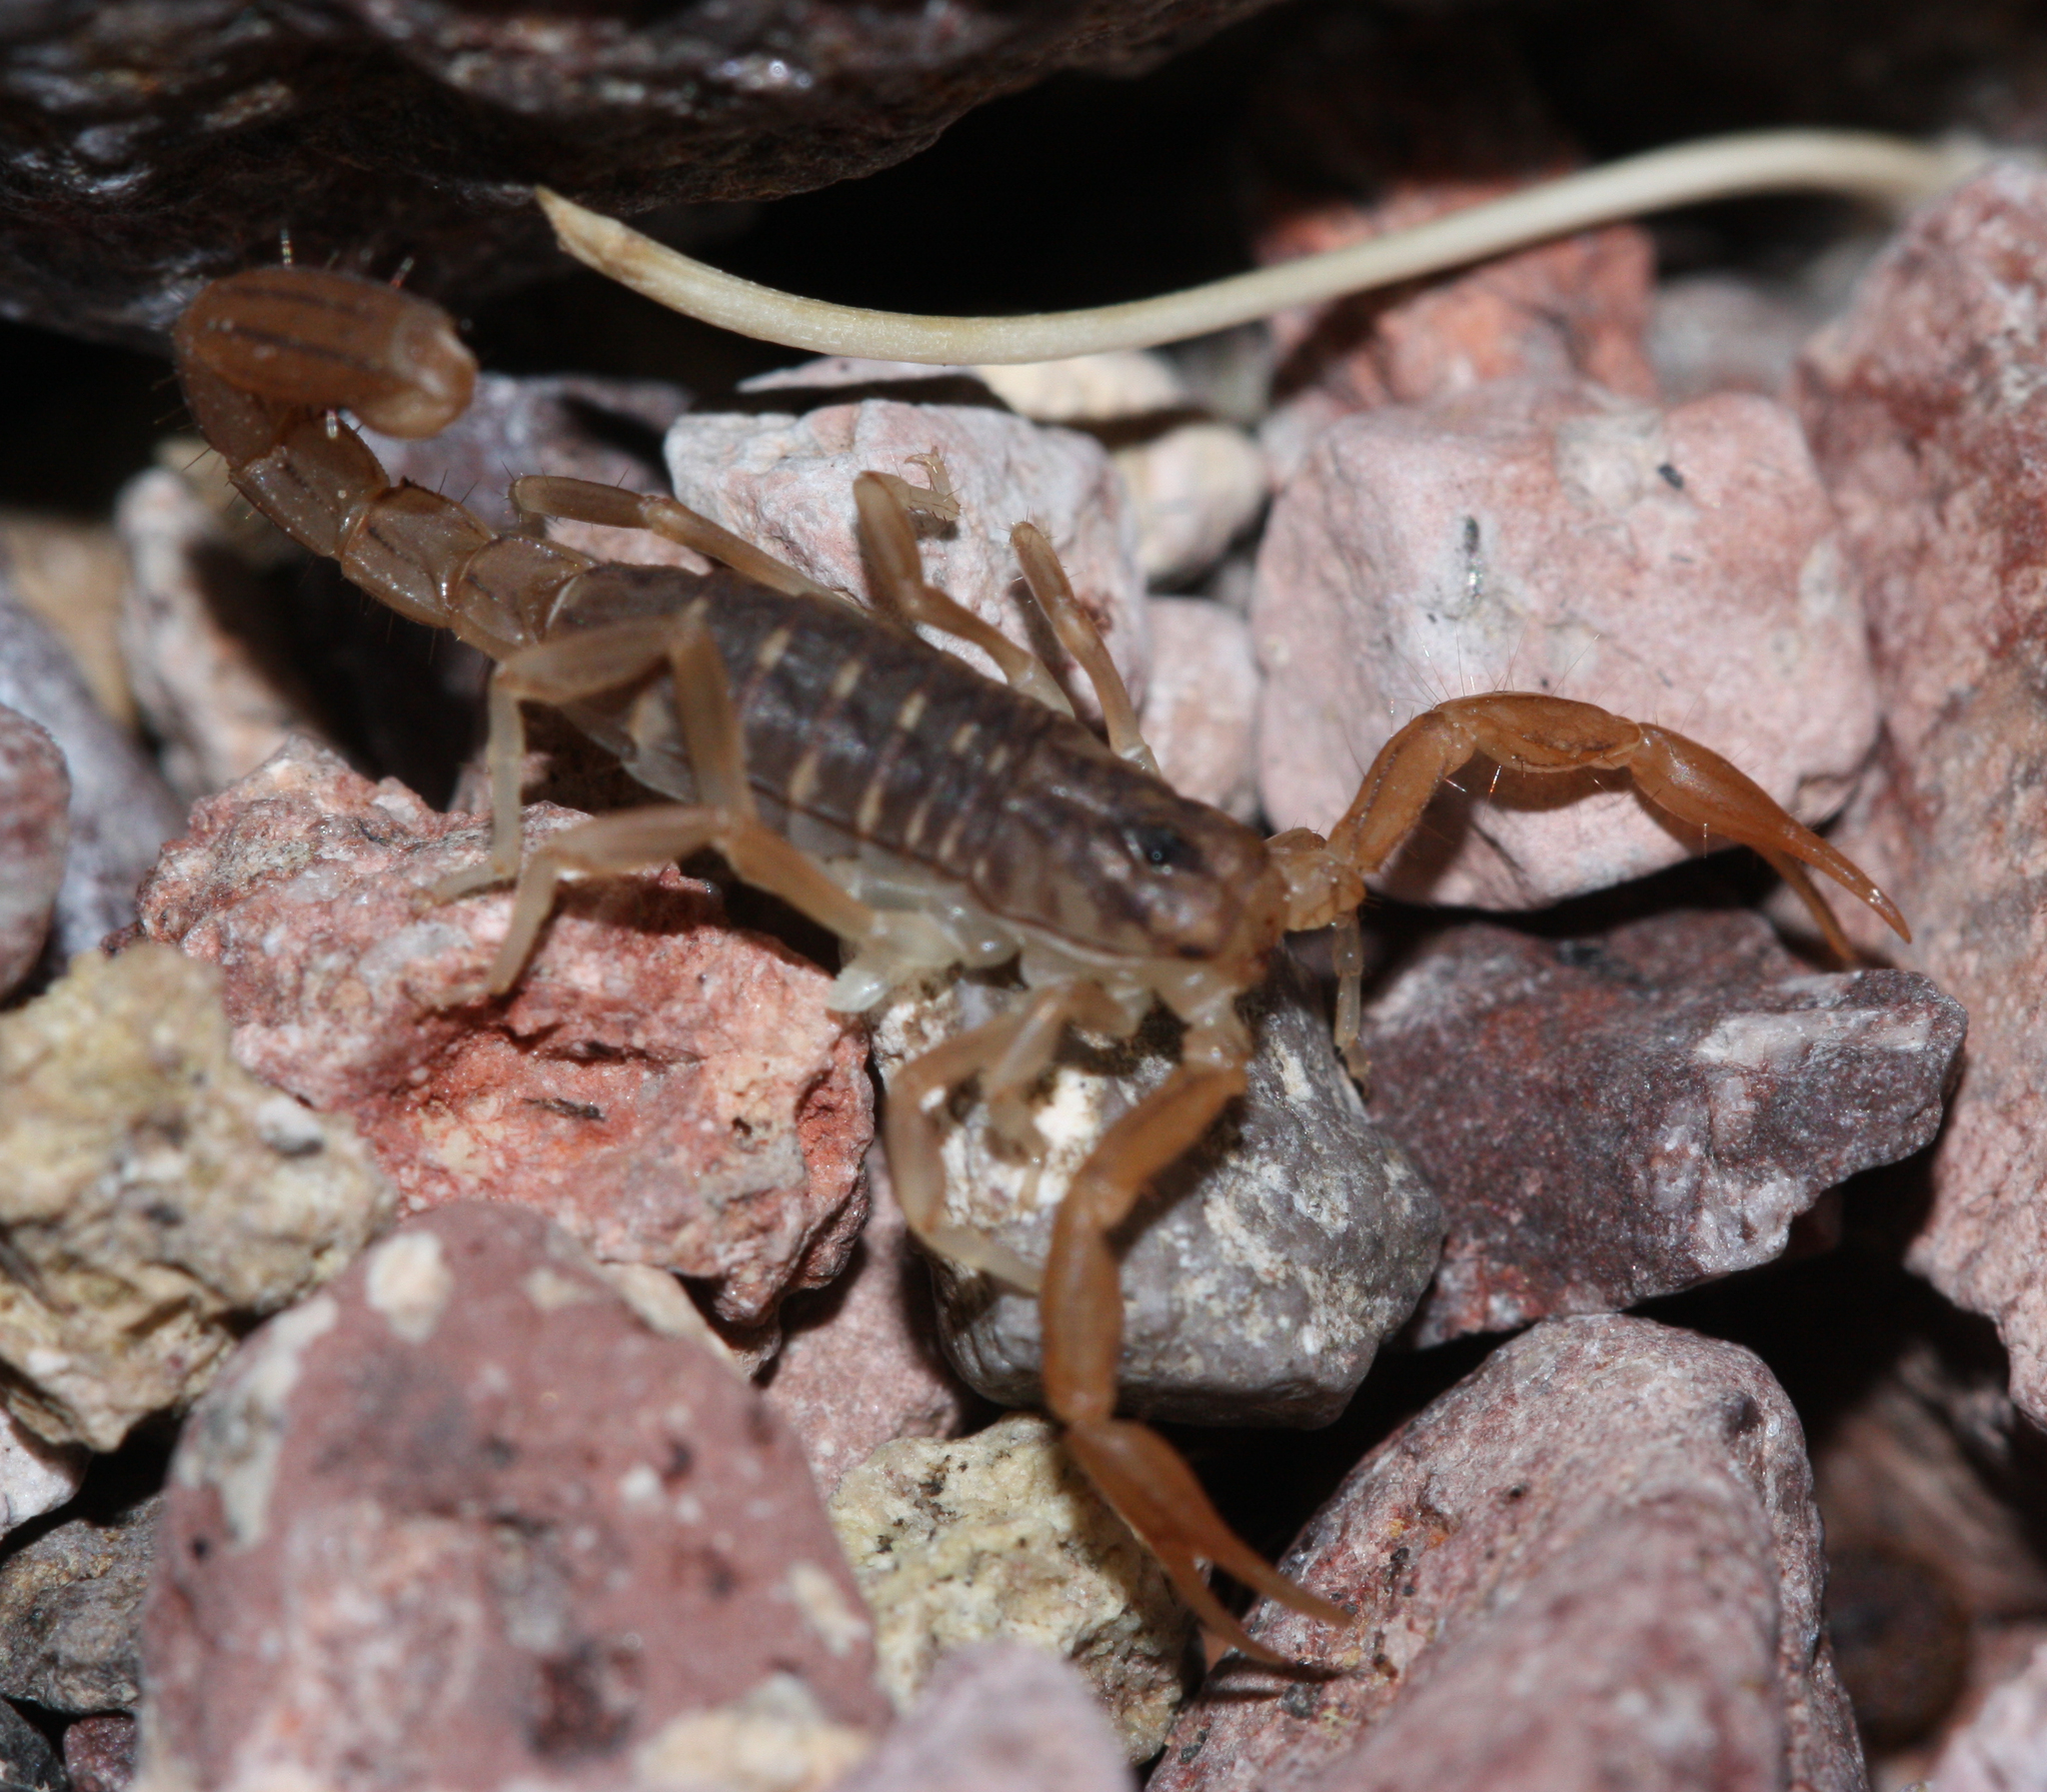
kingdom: Animalia
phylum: Arthropoda
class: Arachnida
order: Scorpiones
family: Vaejovidae
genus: Paravaejovis
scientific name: Paravaejovis spinigerus
